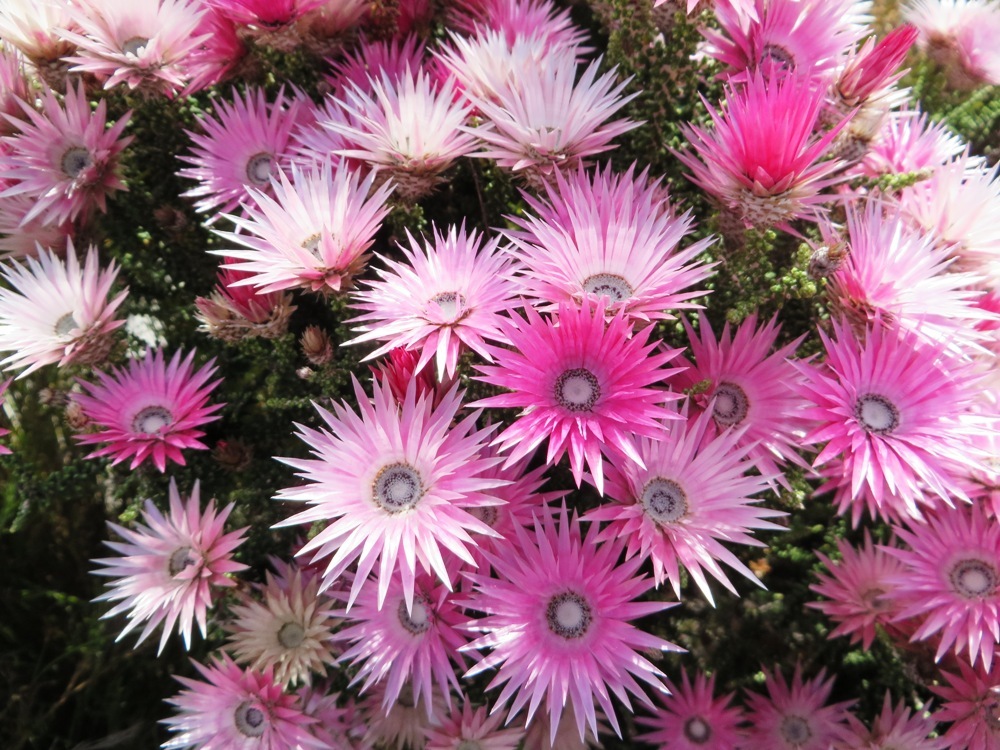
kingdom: Plantae
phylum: Tracheophyta
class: Magnoliopsida
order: Asterales
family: Asteraceae
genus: Phaenocoma
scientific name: Phaenocoma prolifera
